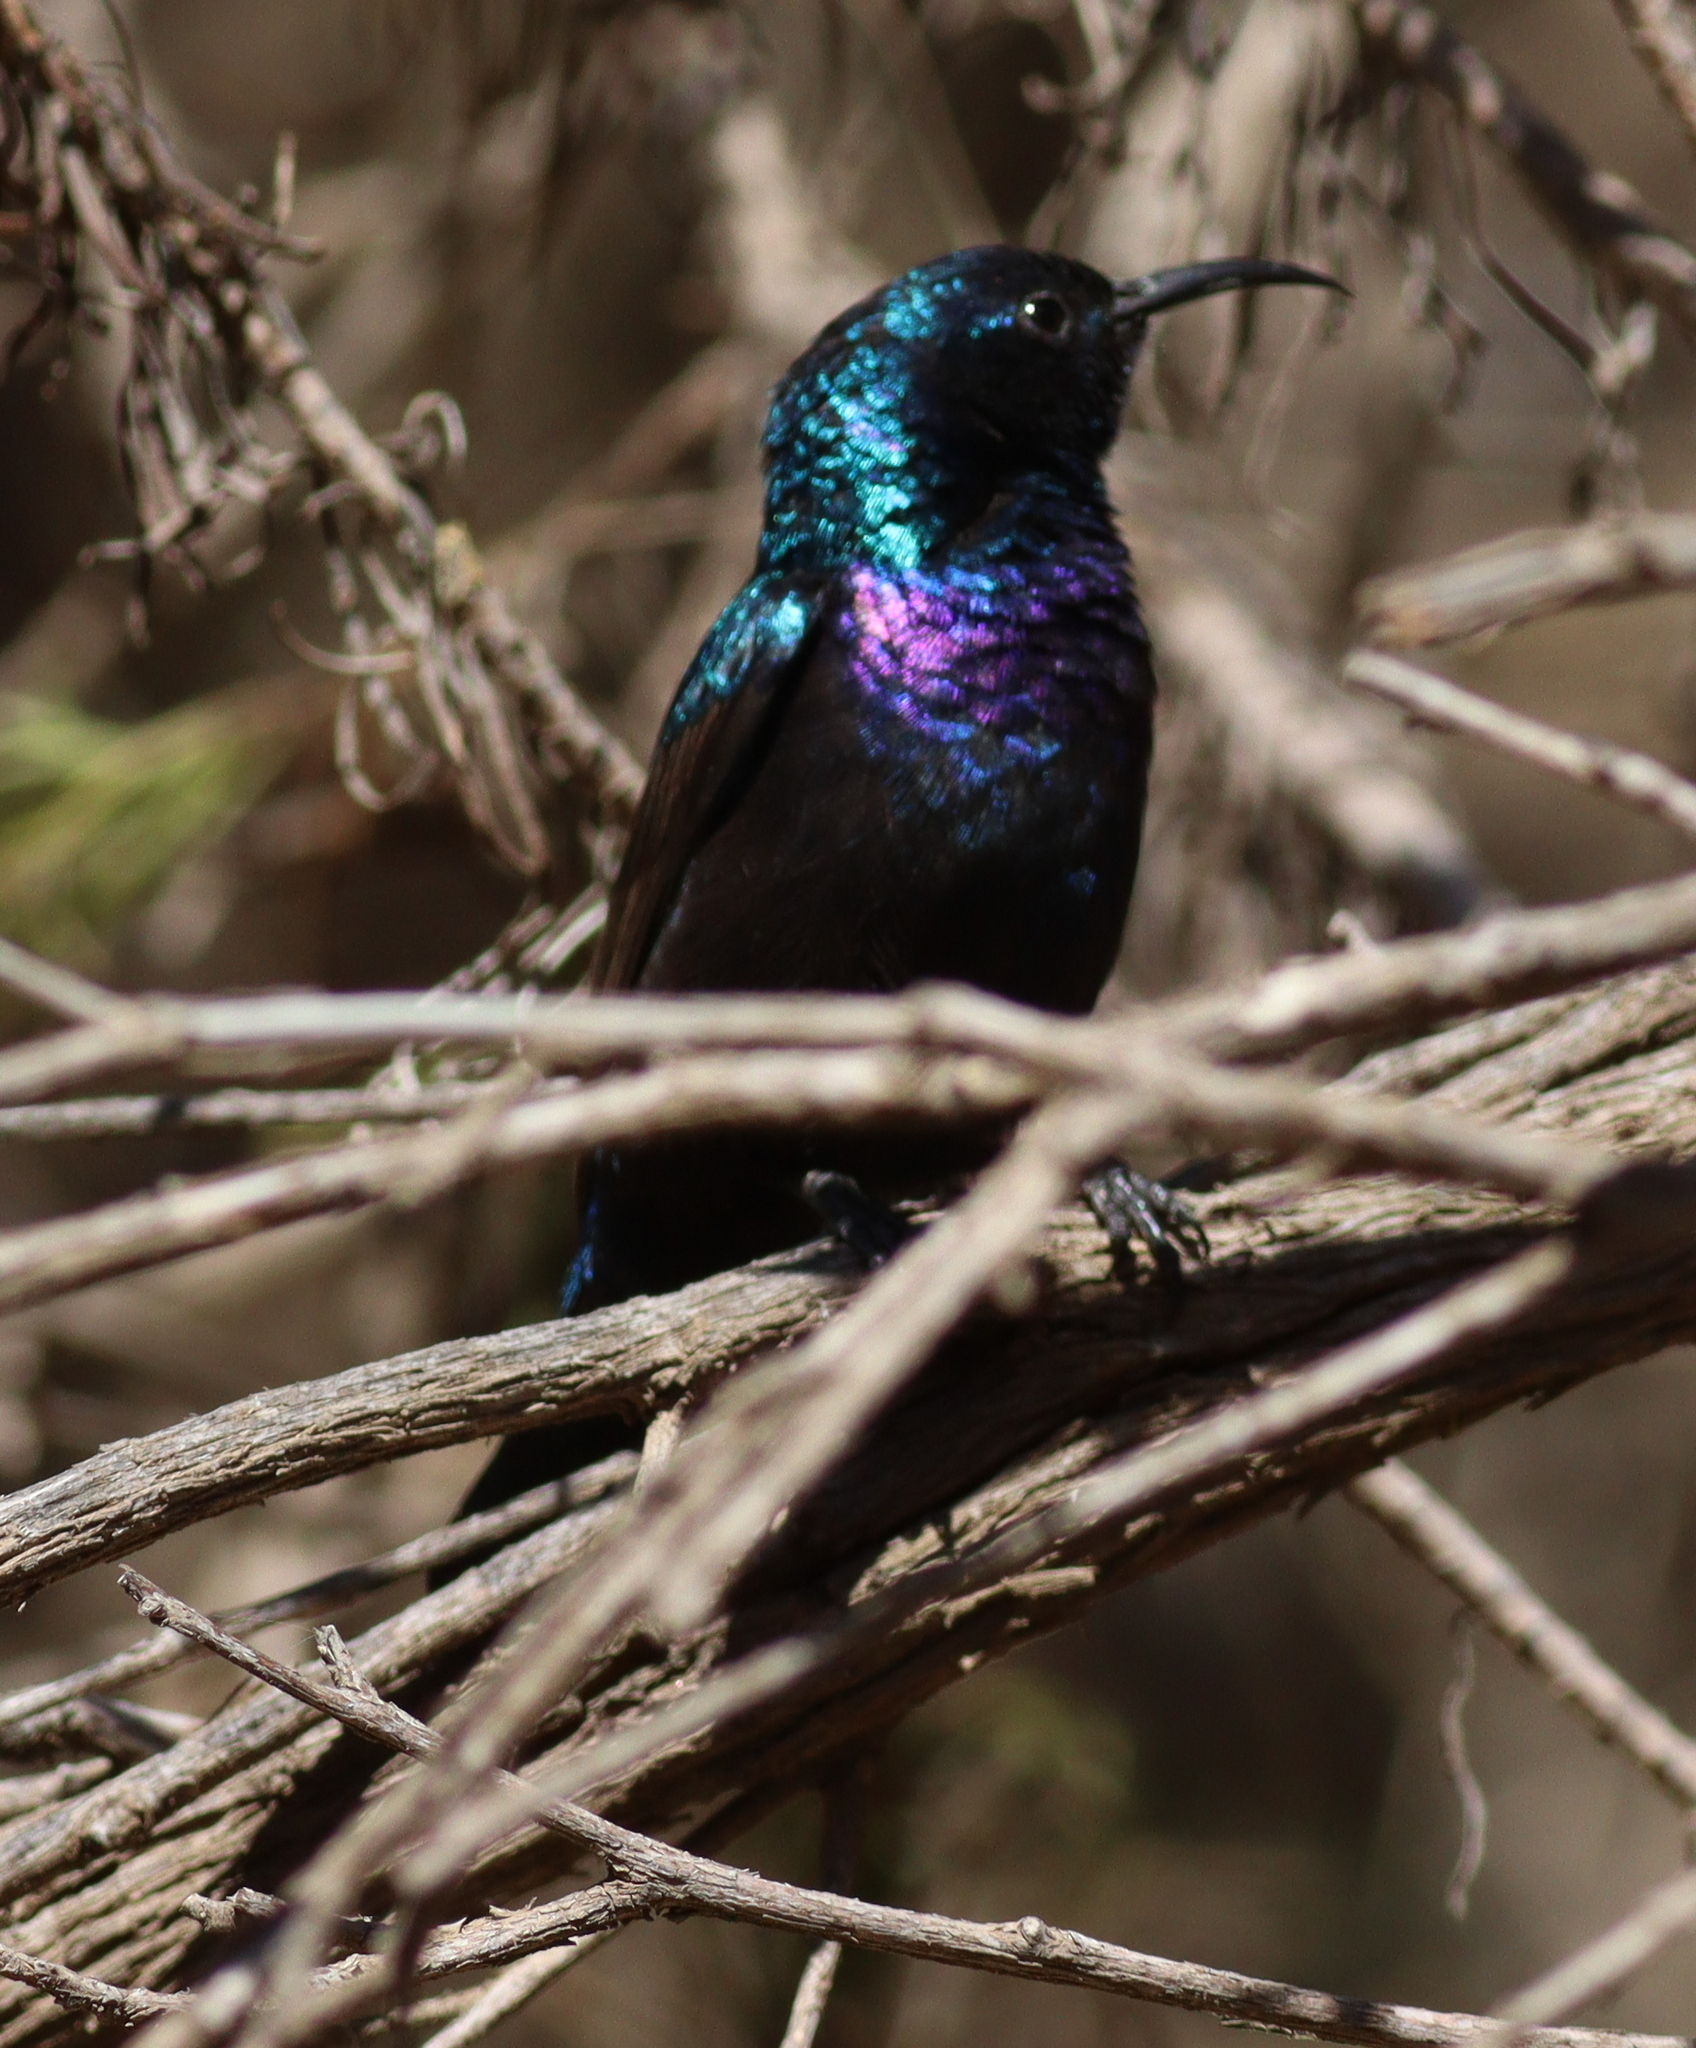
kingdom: Animalia
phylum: Chordata
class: Aves
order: Passeriformes
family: Nectariniidae
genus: Cinnyris
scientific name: Cinnyris osea
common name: Palestine sunbird
